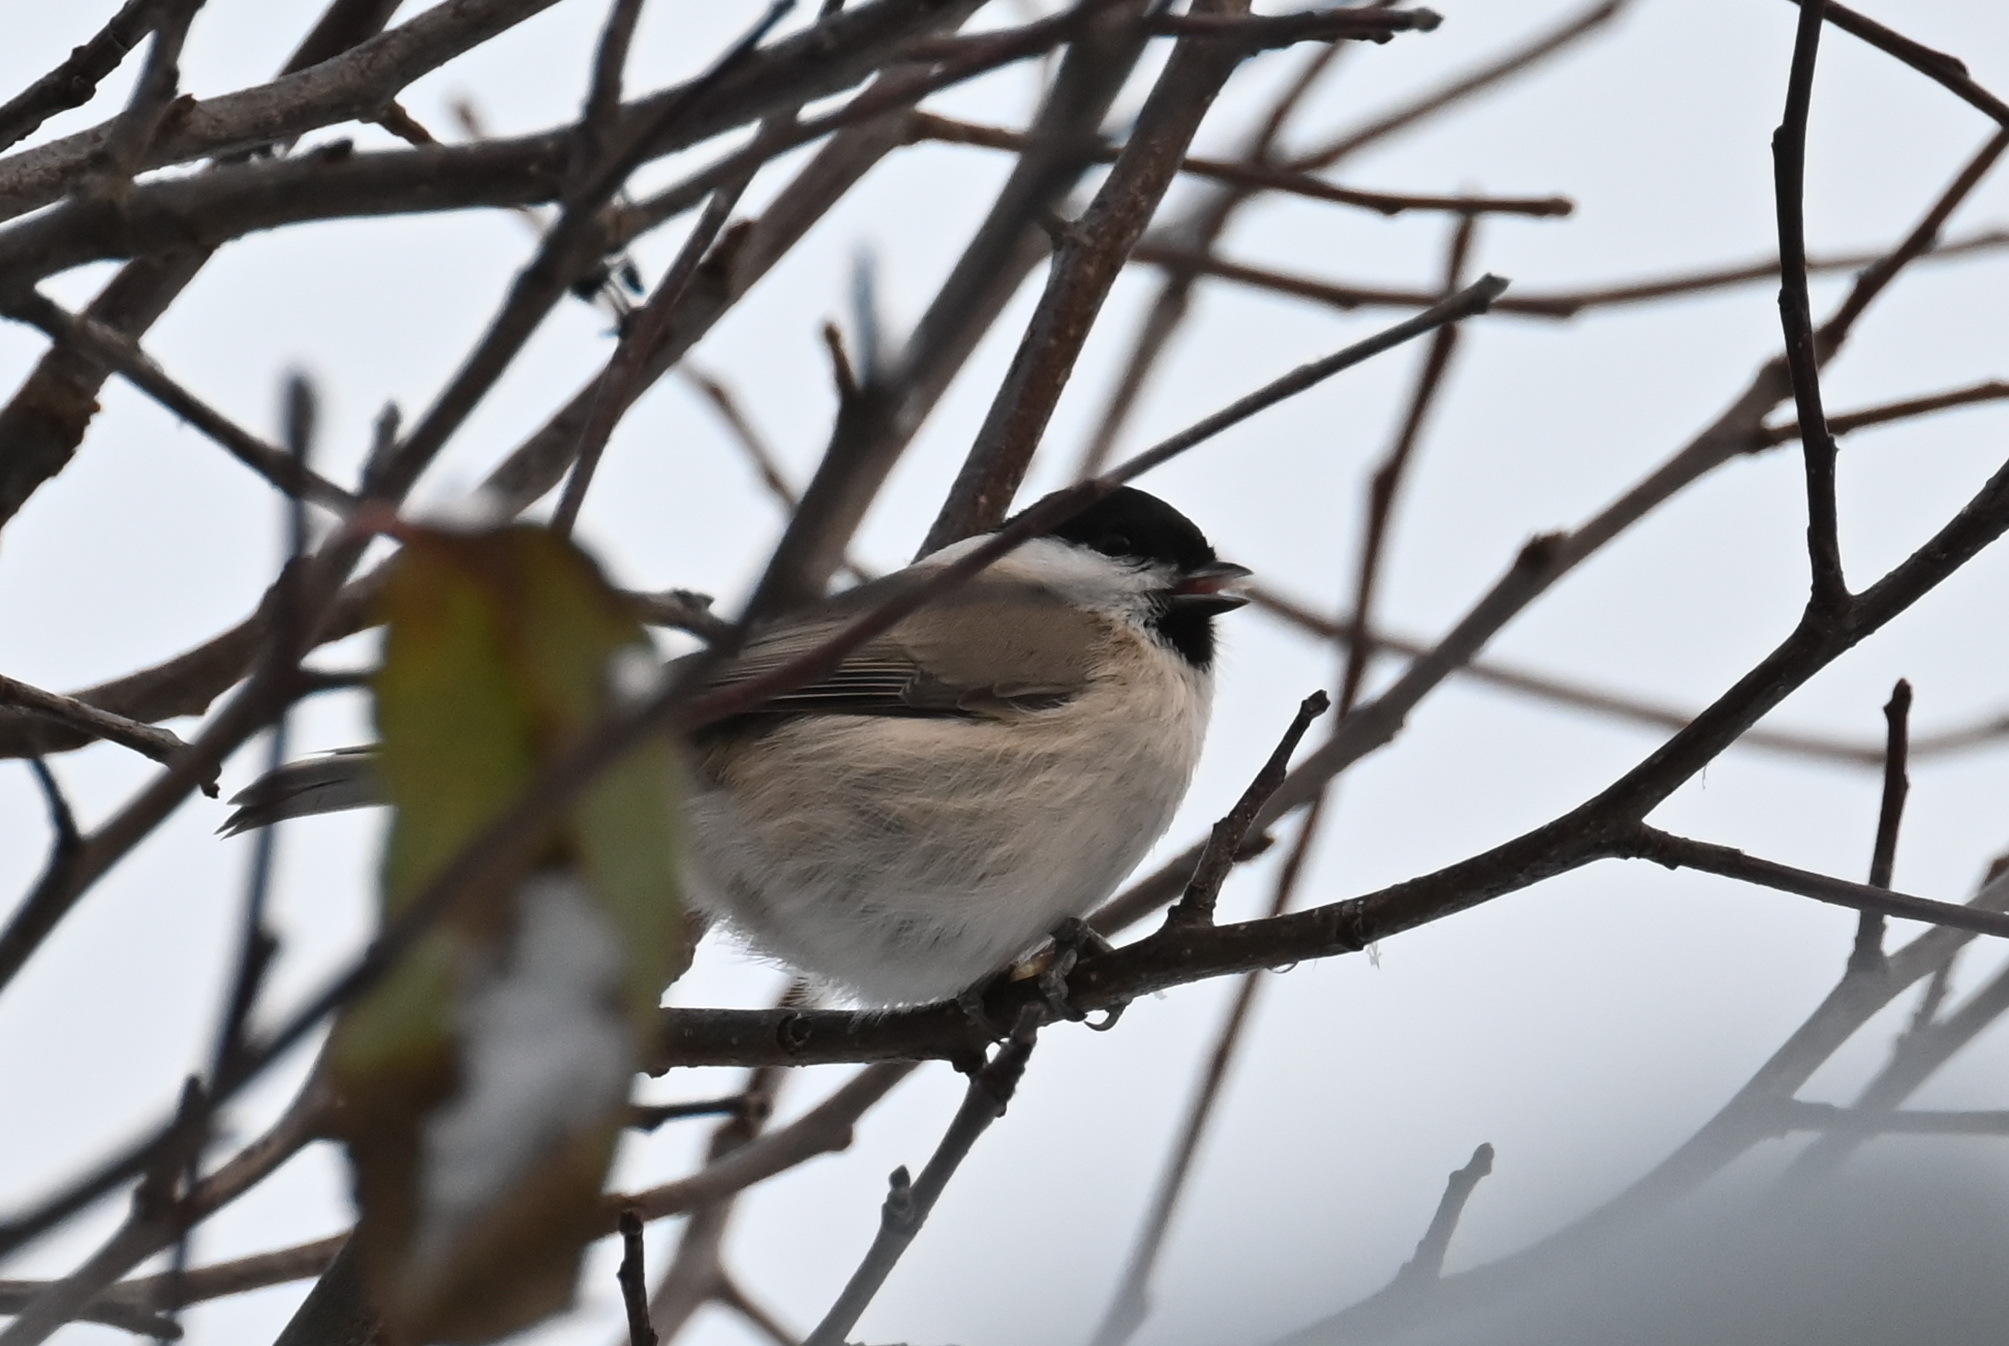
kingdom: Animalia
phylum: Chordata
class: Aves
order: Passeriformes
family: Paridae
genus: Poecile
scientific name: Poecile palustris
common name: Marsh tit
